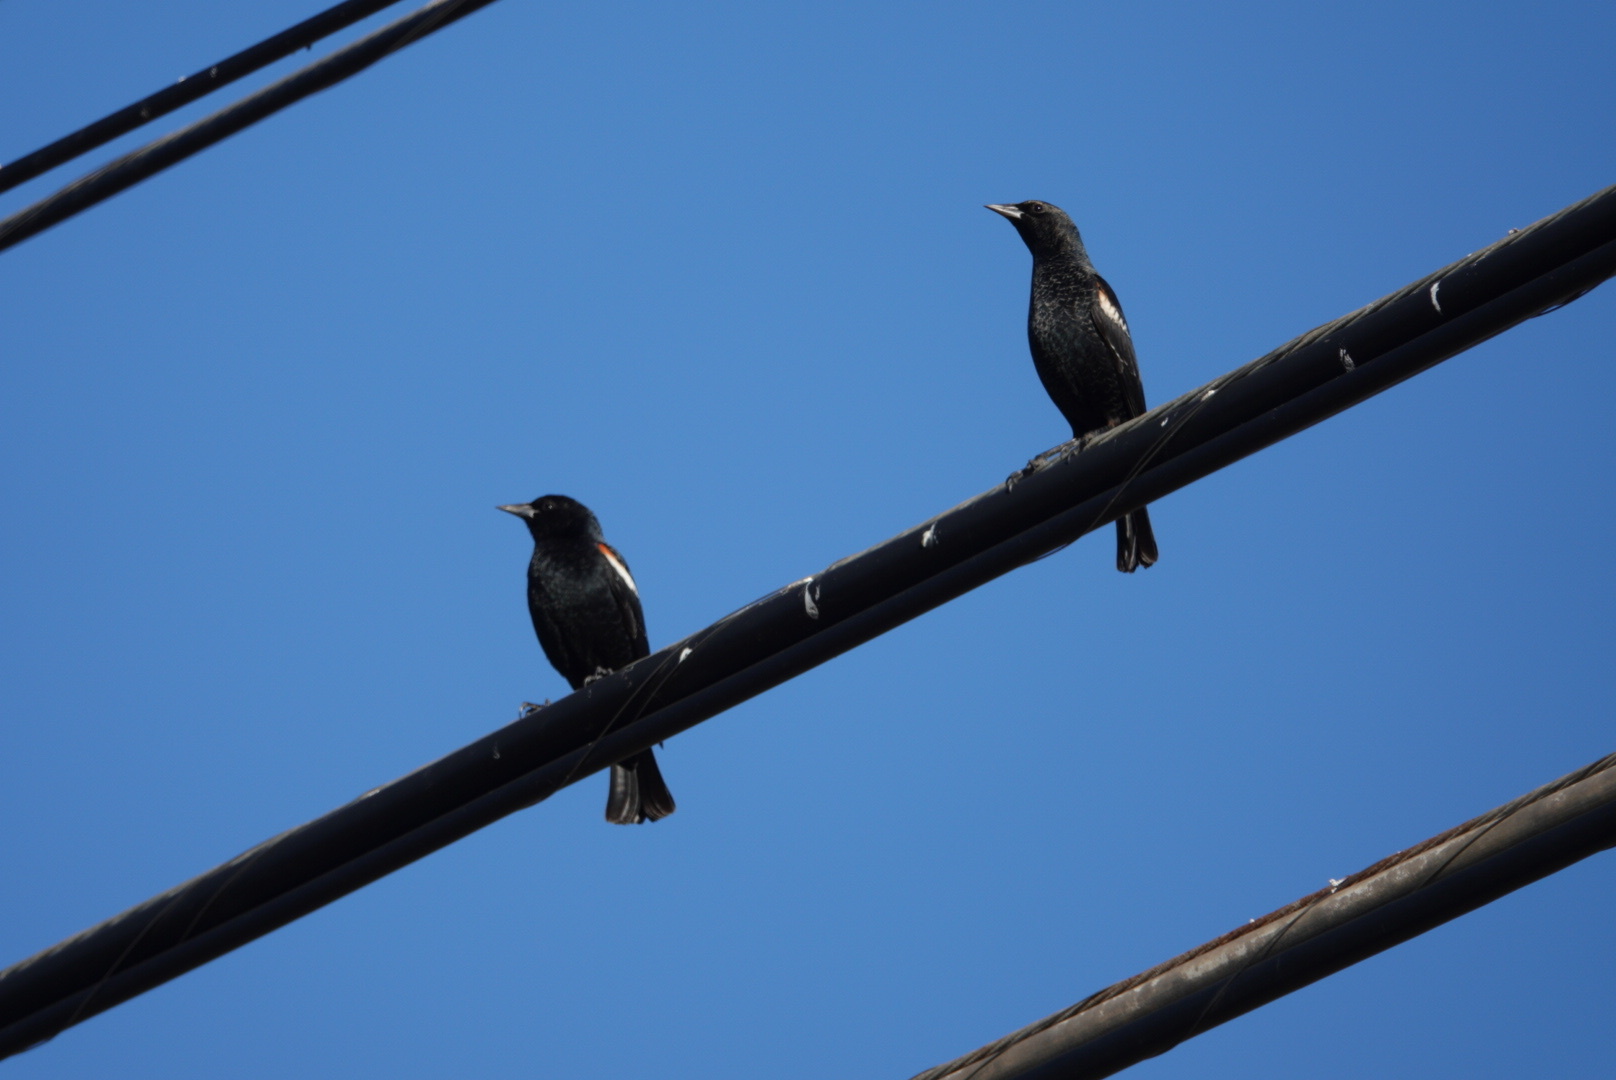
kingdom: Animalia
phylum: Chordata
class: Aves
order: Passeriformes
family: Icteridae
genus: Agelaius
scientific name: Agelaius tricolor
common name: Tricolored blackbird
